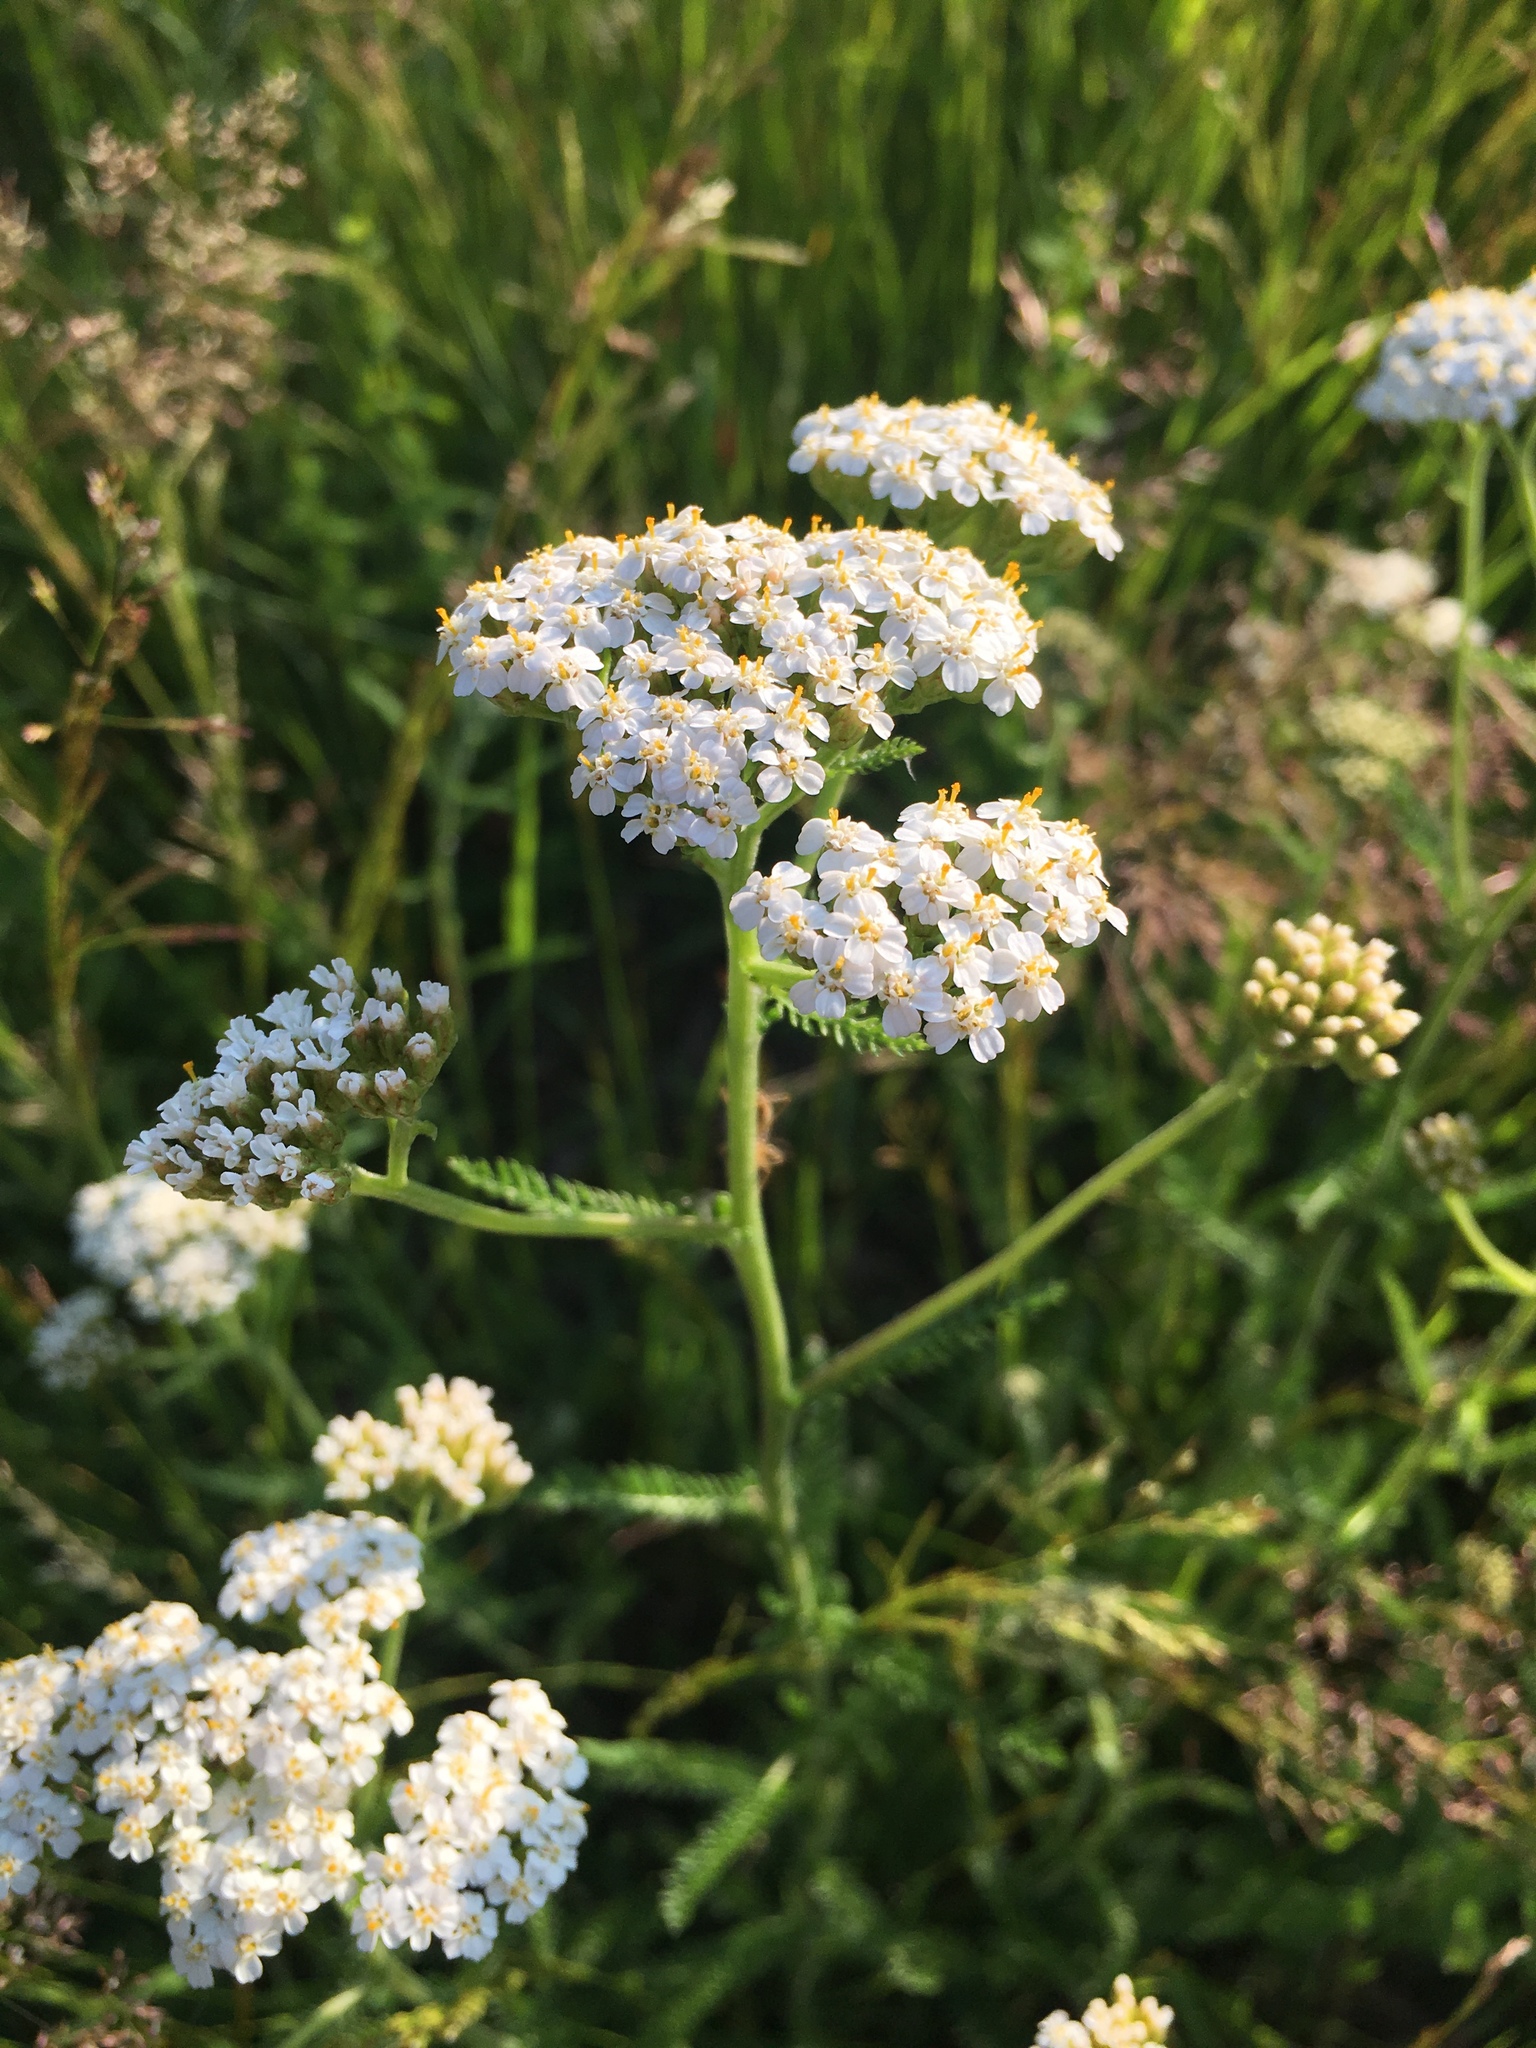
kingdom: Plantae
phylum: Tracheophyta
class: Magnoliopsida
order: Asterales
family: Asteraceae
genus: Achillea
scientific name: Achillea millefolium
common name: Yarrow
